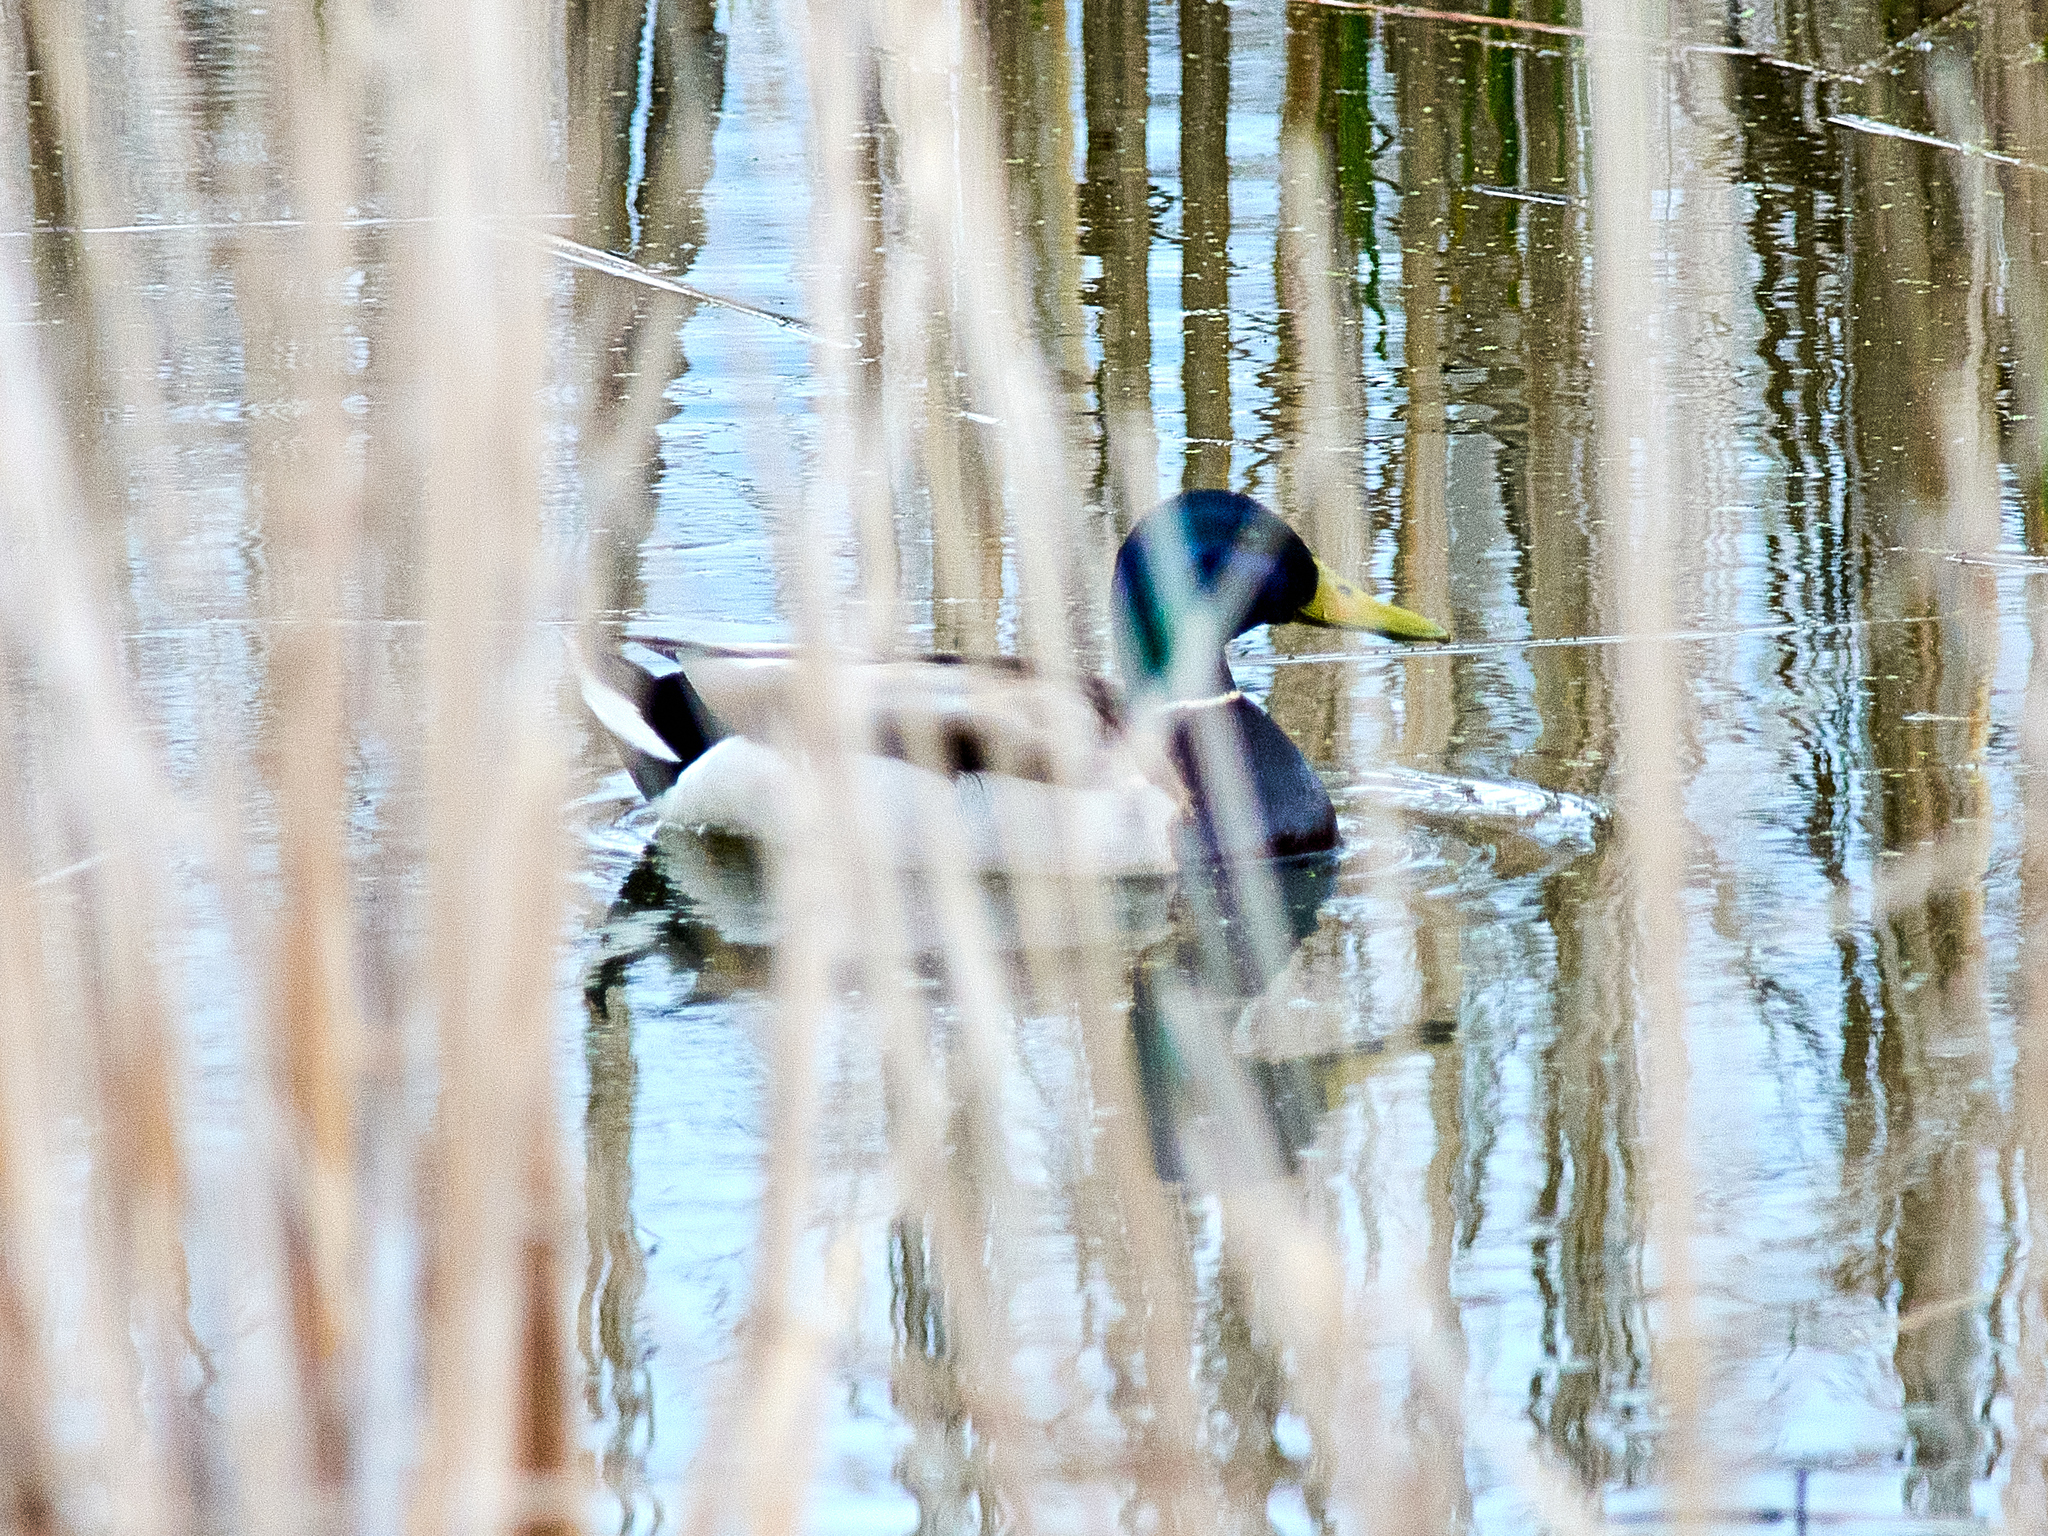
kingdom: Animalia
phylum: Chordata
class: Aves
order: Anseriformes
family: Anatidae
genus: Anas
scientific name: Anas platyrhynchos
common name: Mallard
